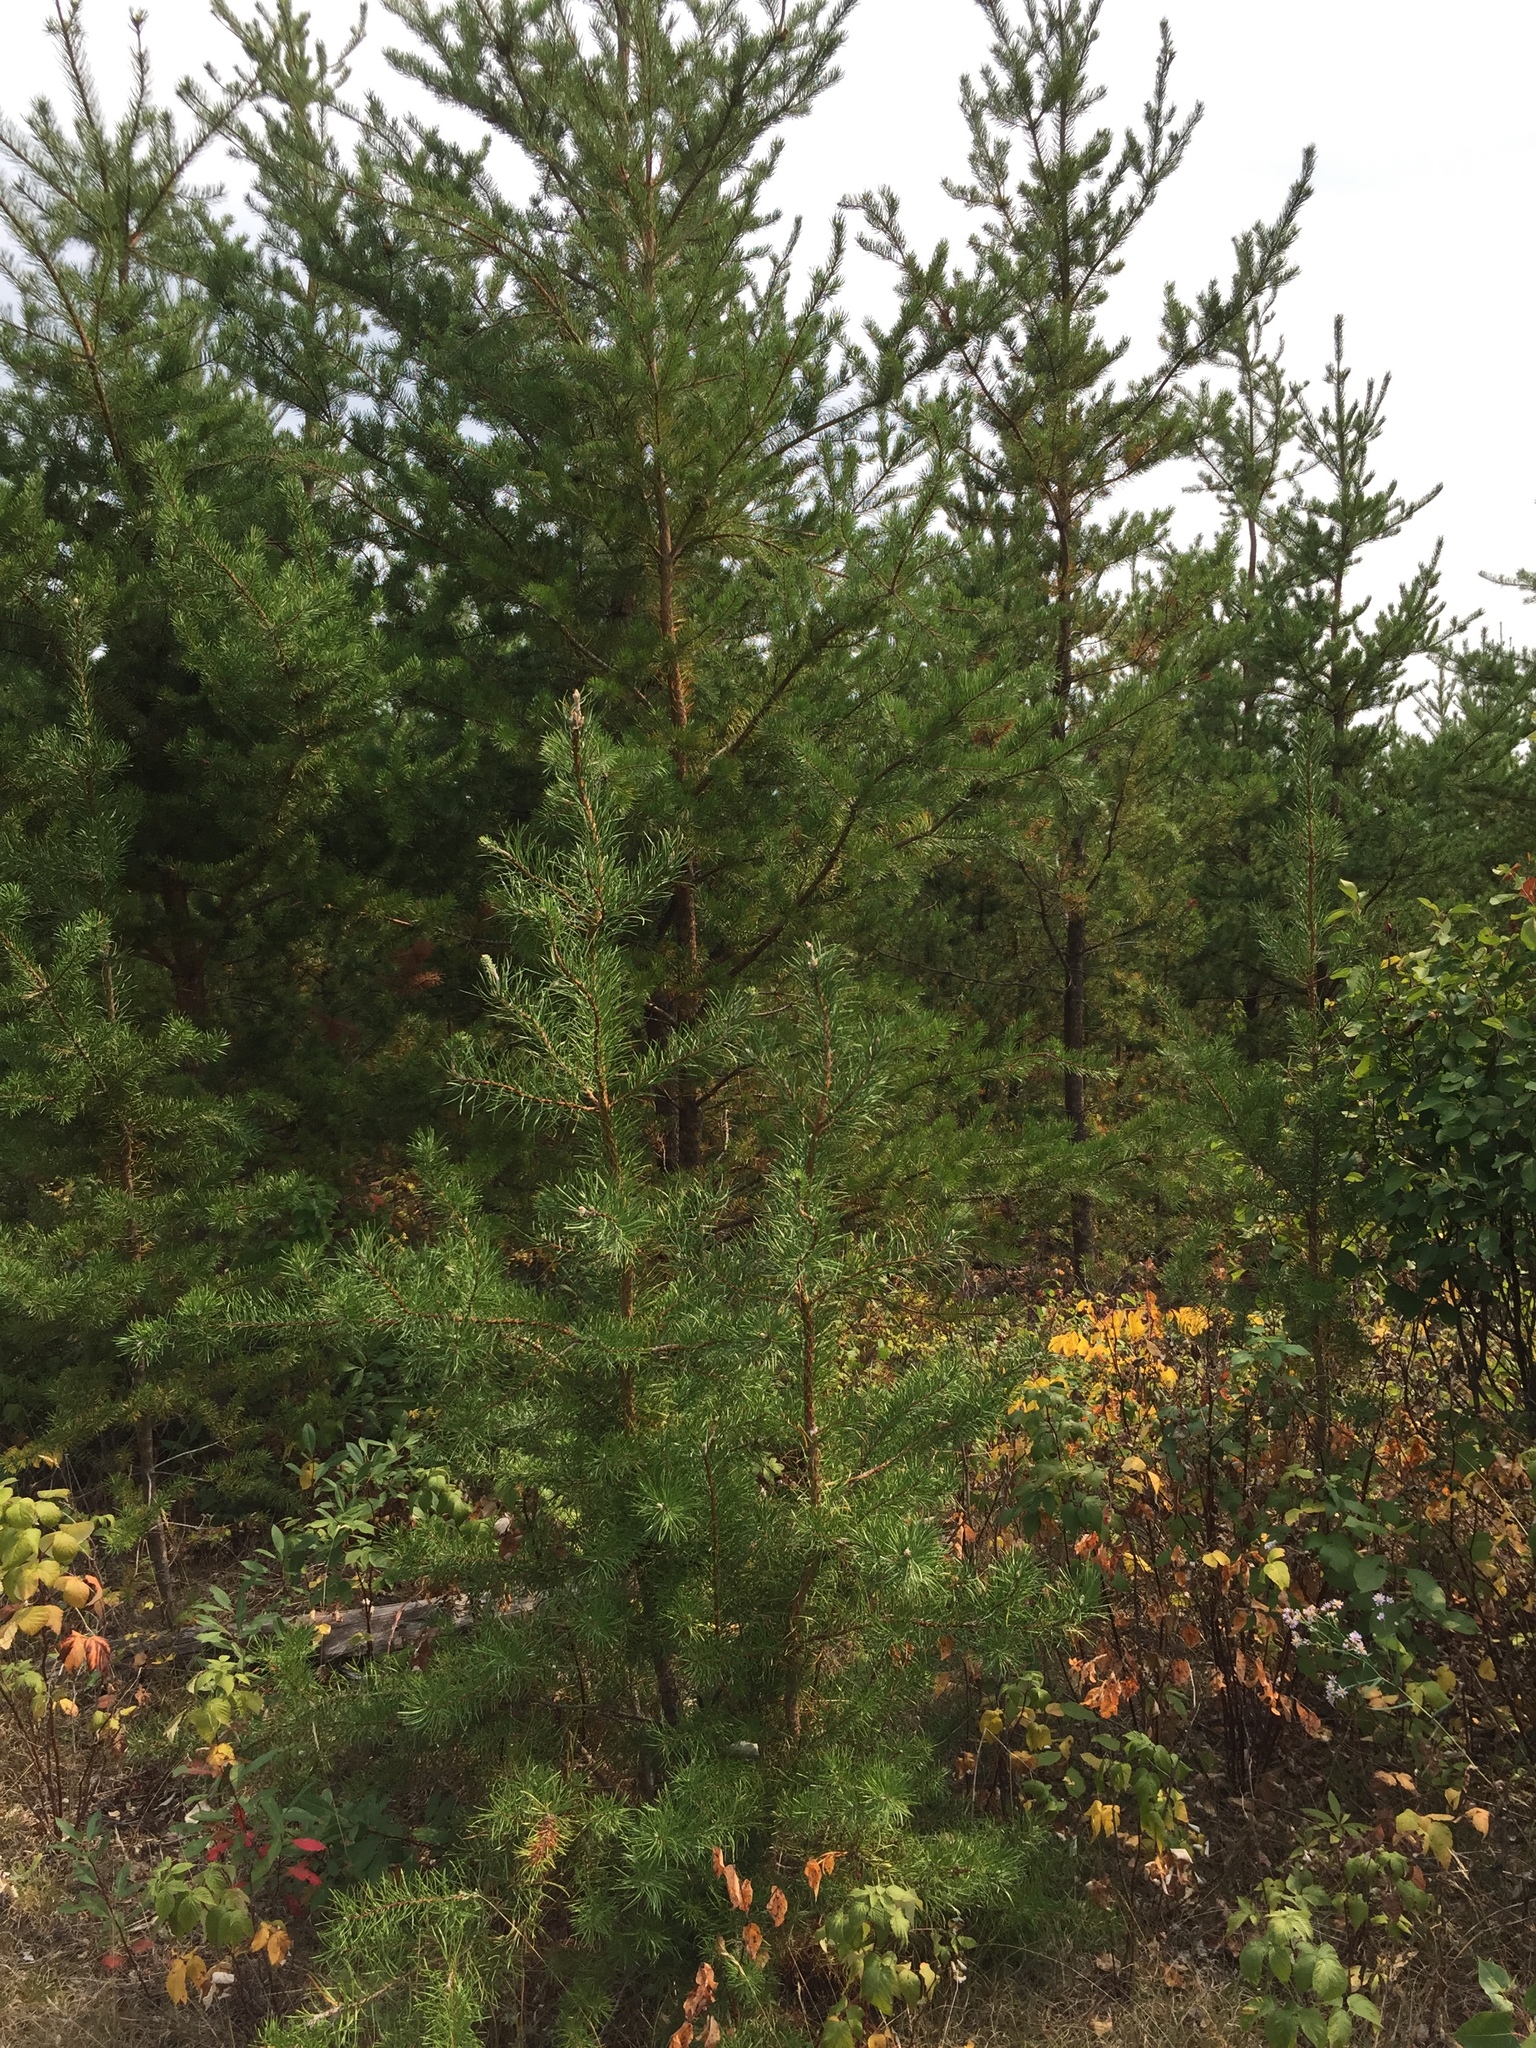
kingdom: Plantae
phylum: Tracheophyta
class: Pinopsida
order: Pinales
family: Pinaceae
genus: Pinus
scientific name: Pinus banksiana
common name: Jack pine
